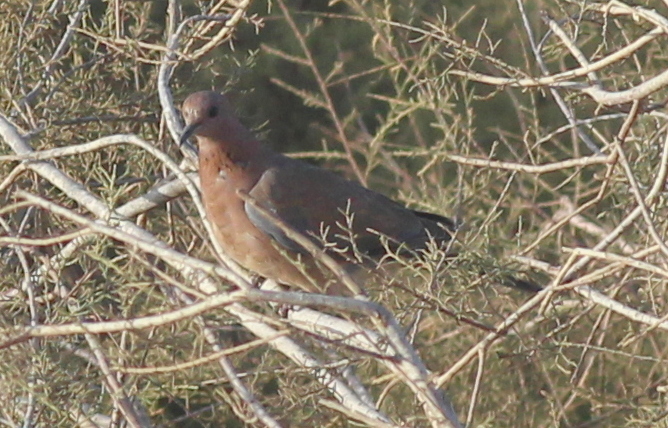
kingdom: Animalia
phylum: Chordata
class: Aves
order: Columbiformes
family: Columbidae
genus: Spilopelia
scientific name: Spilopelia senegalensis
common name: Laughing dove
